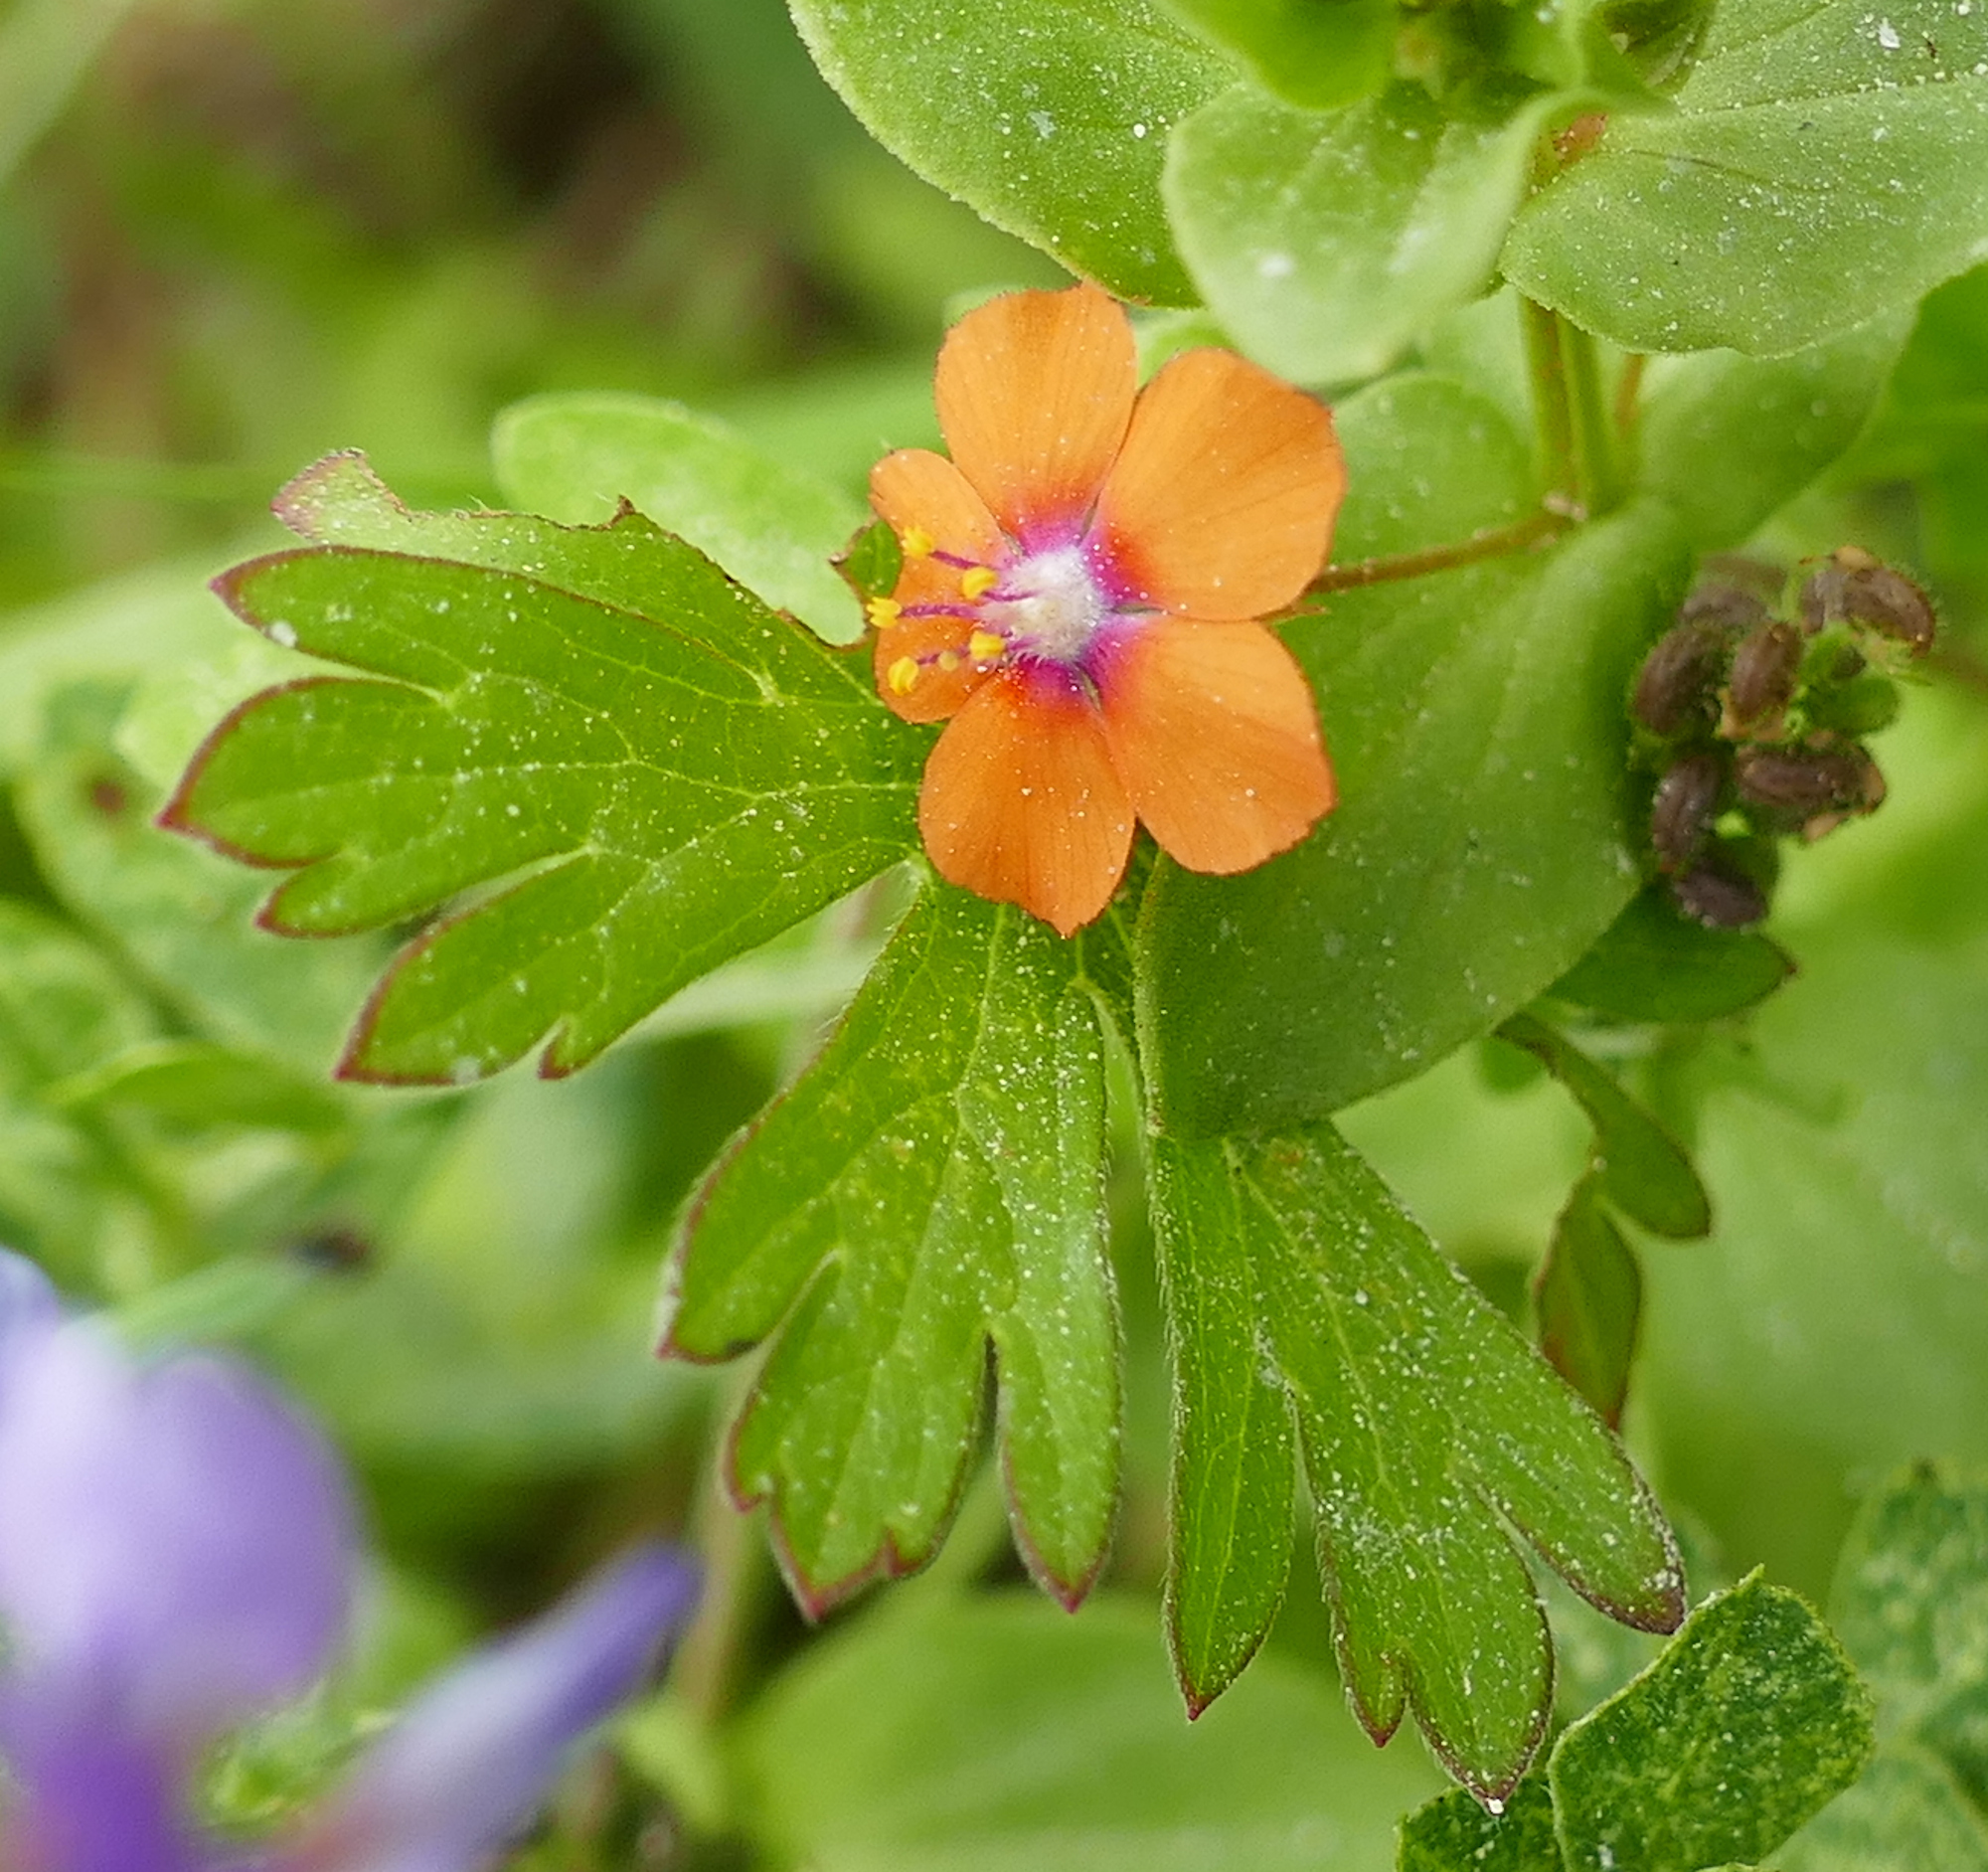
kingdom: Plantae
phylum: Tracheophyta
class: Magnoliopsida
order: Ericales
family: Primulaceae
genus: Lysimachia
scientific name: Lysimachia arvensis
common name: Scarlet pimpernel
